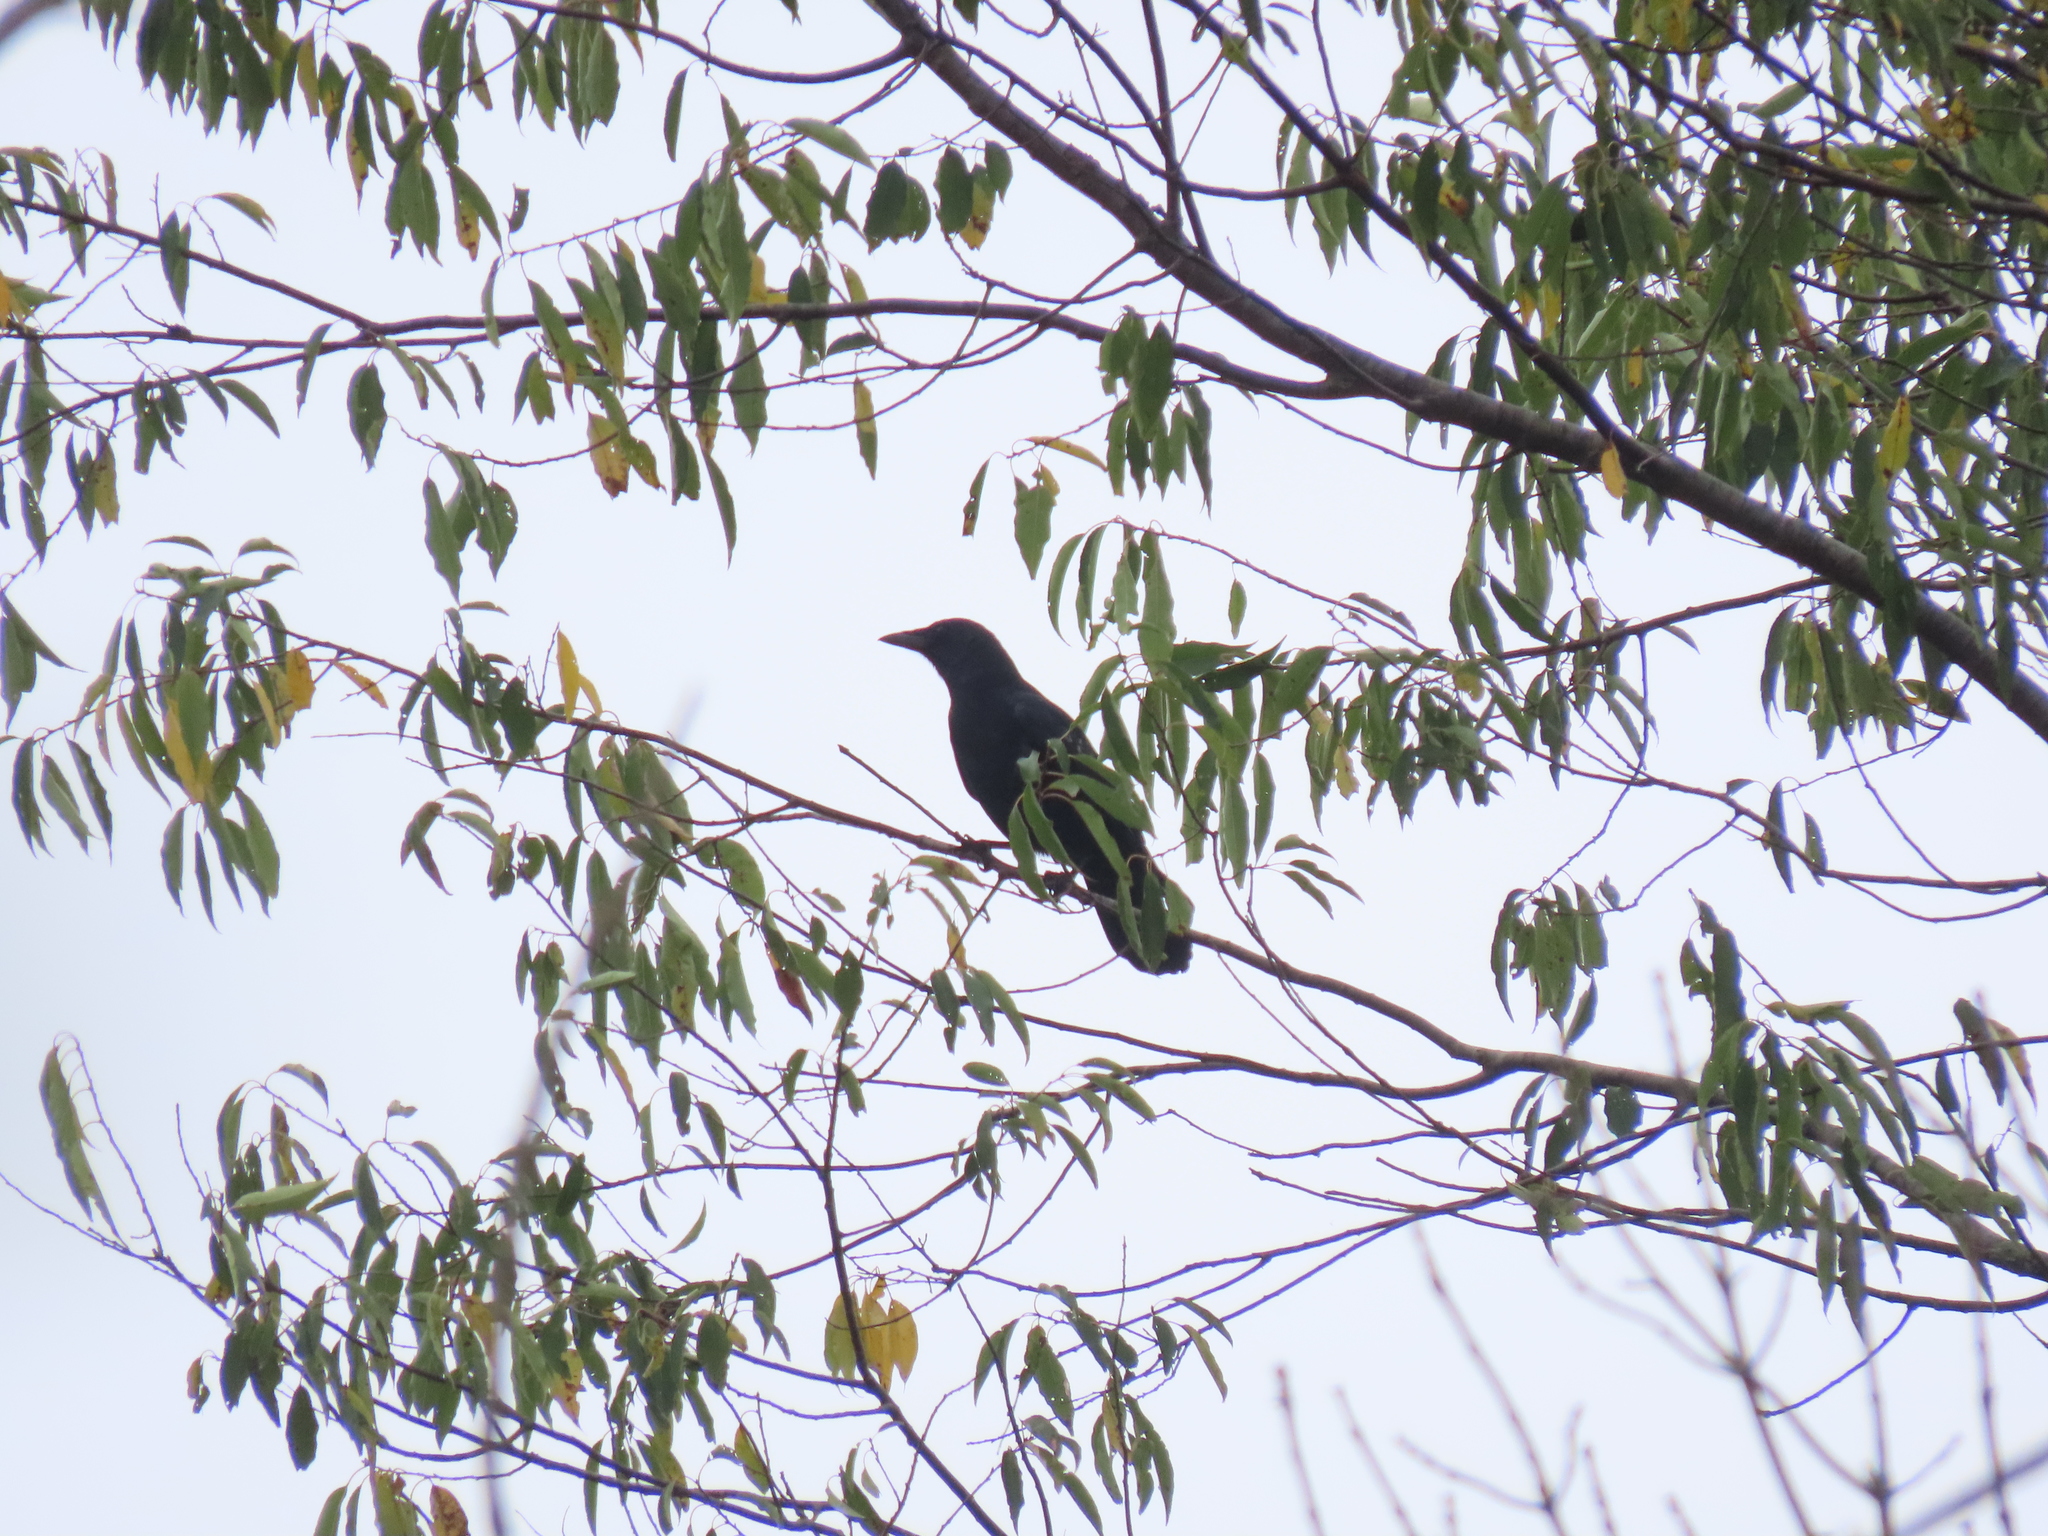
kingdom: Animalia
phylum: Chordata
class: Aves
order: Passeriformes
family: Corvidae
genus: Corvus
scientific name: Corvus corax
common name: Common raven
